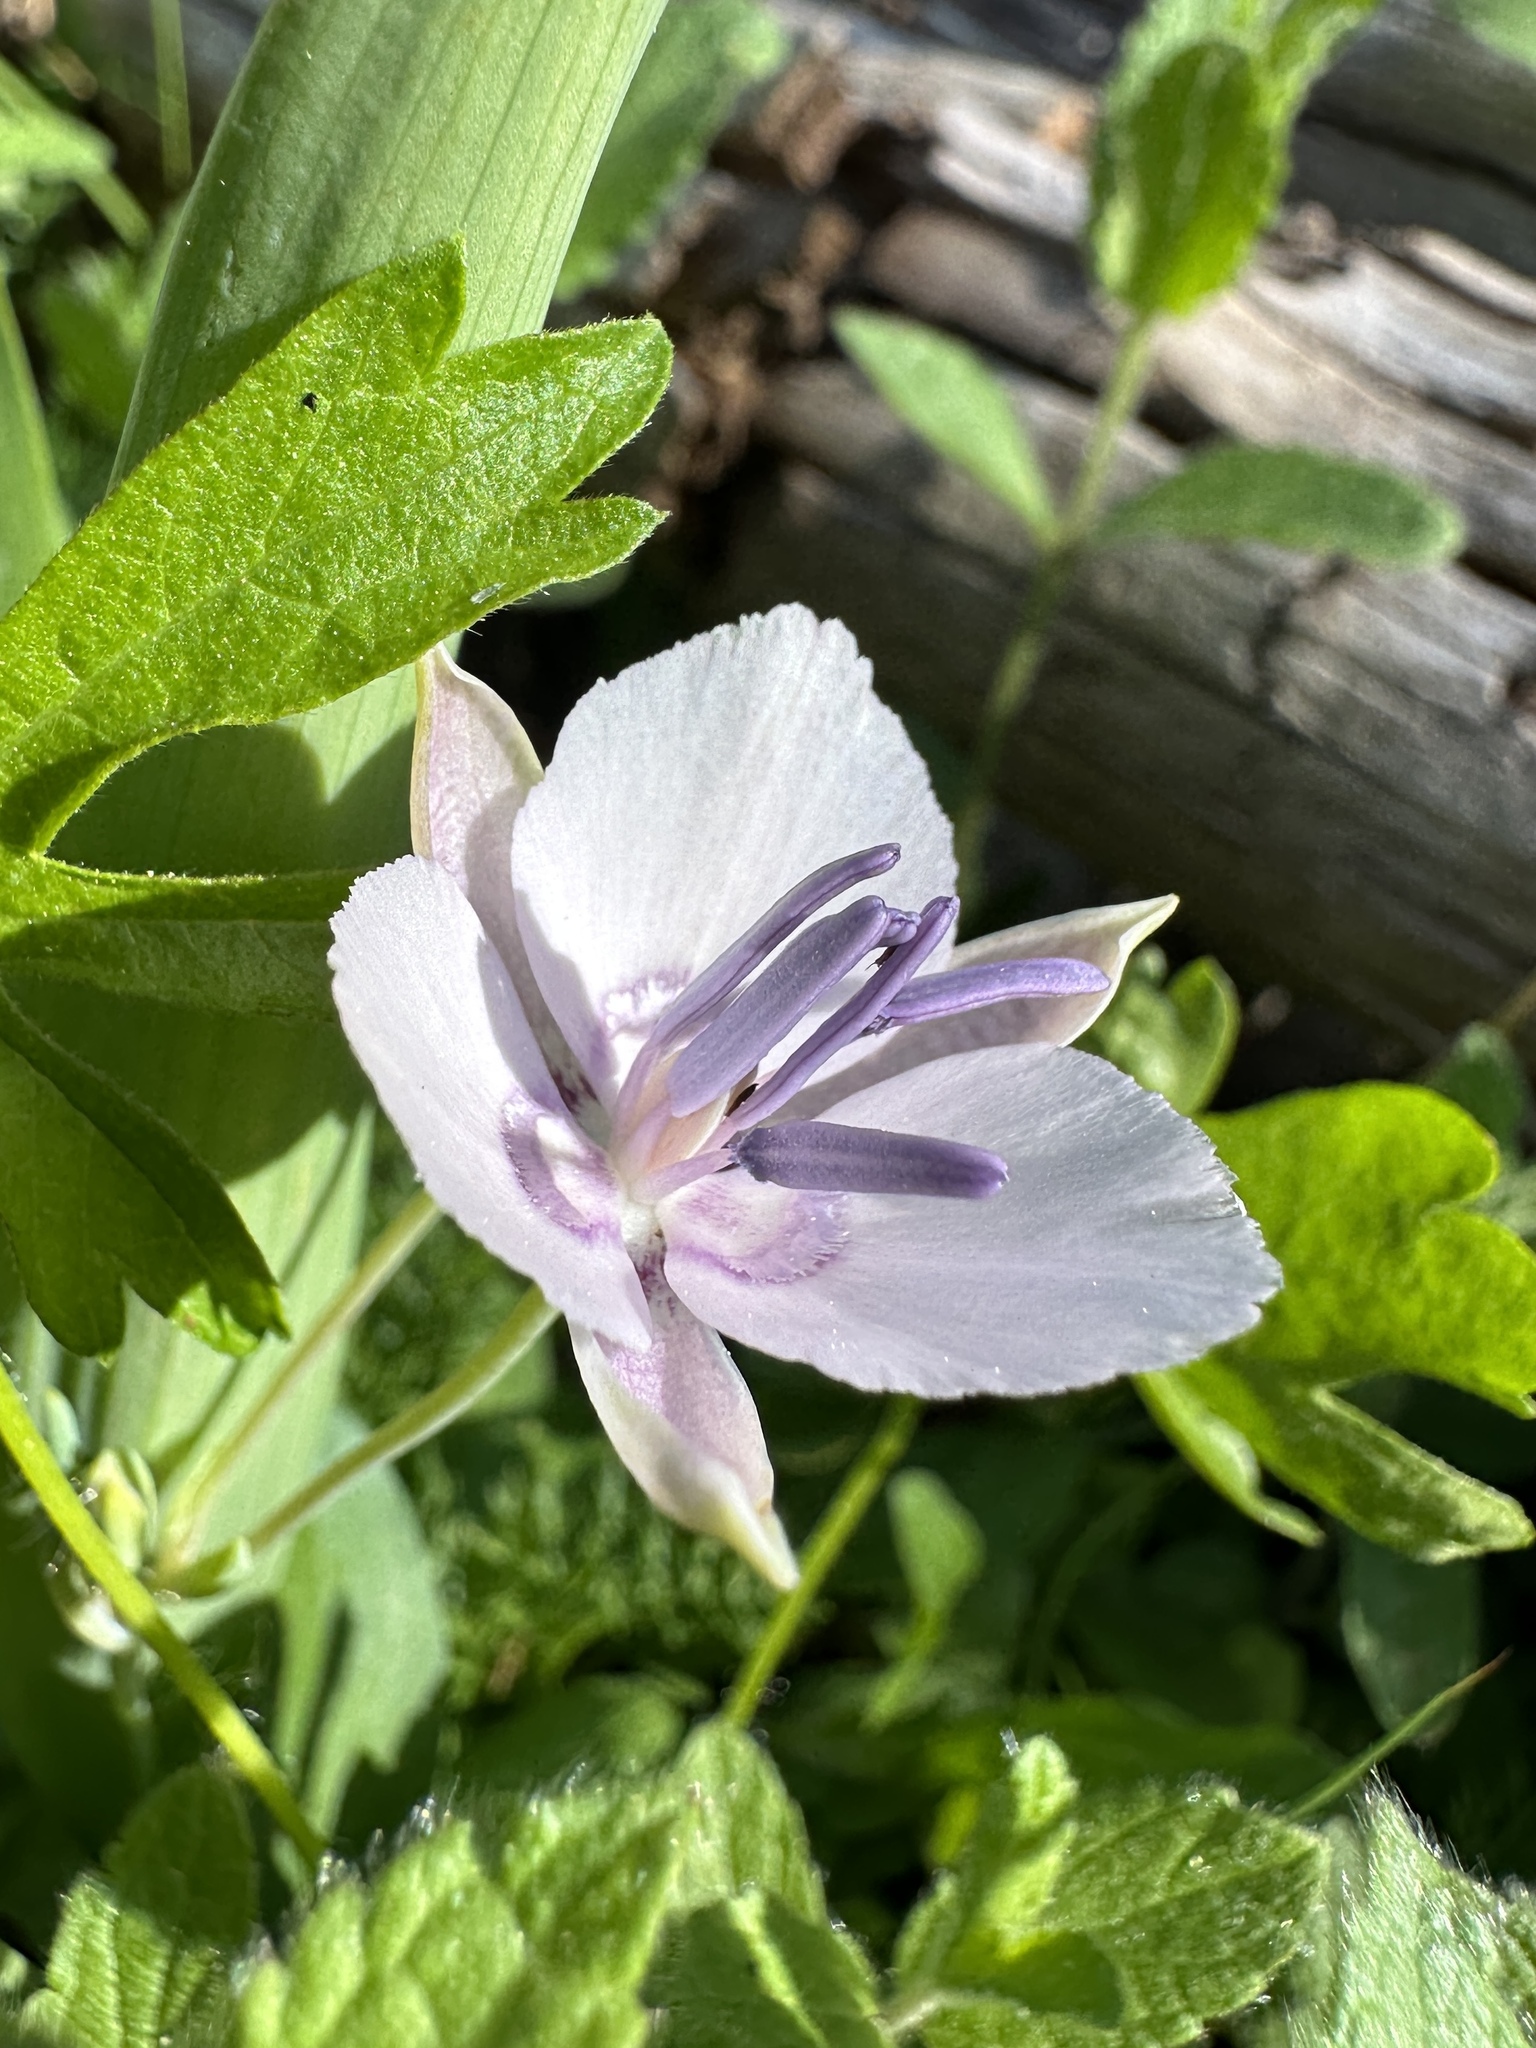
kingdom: Plantae
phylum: Tracheophyta
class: Liliopsida
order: Liliales
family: Liliaceae
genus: Calochortus
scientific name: Calochortus nudus
